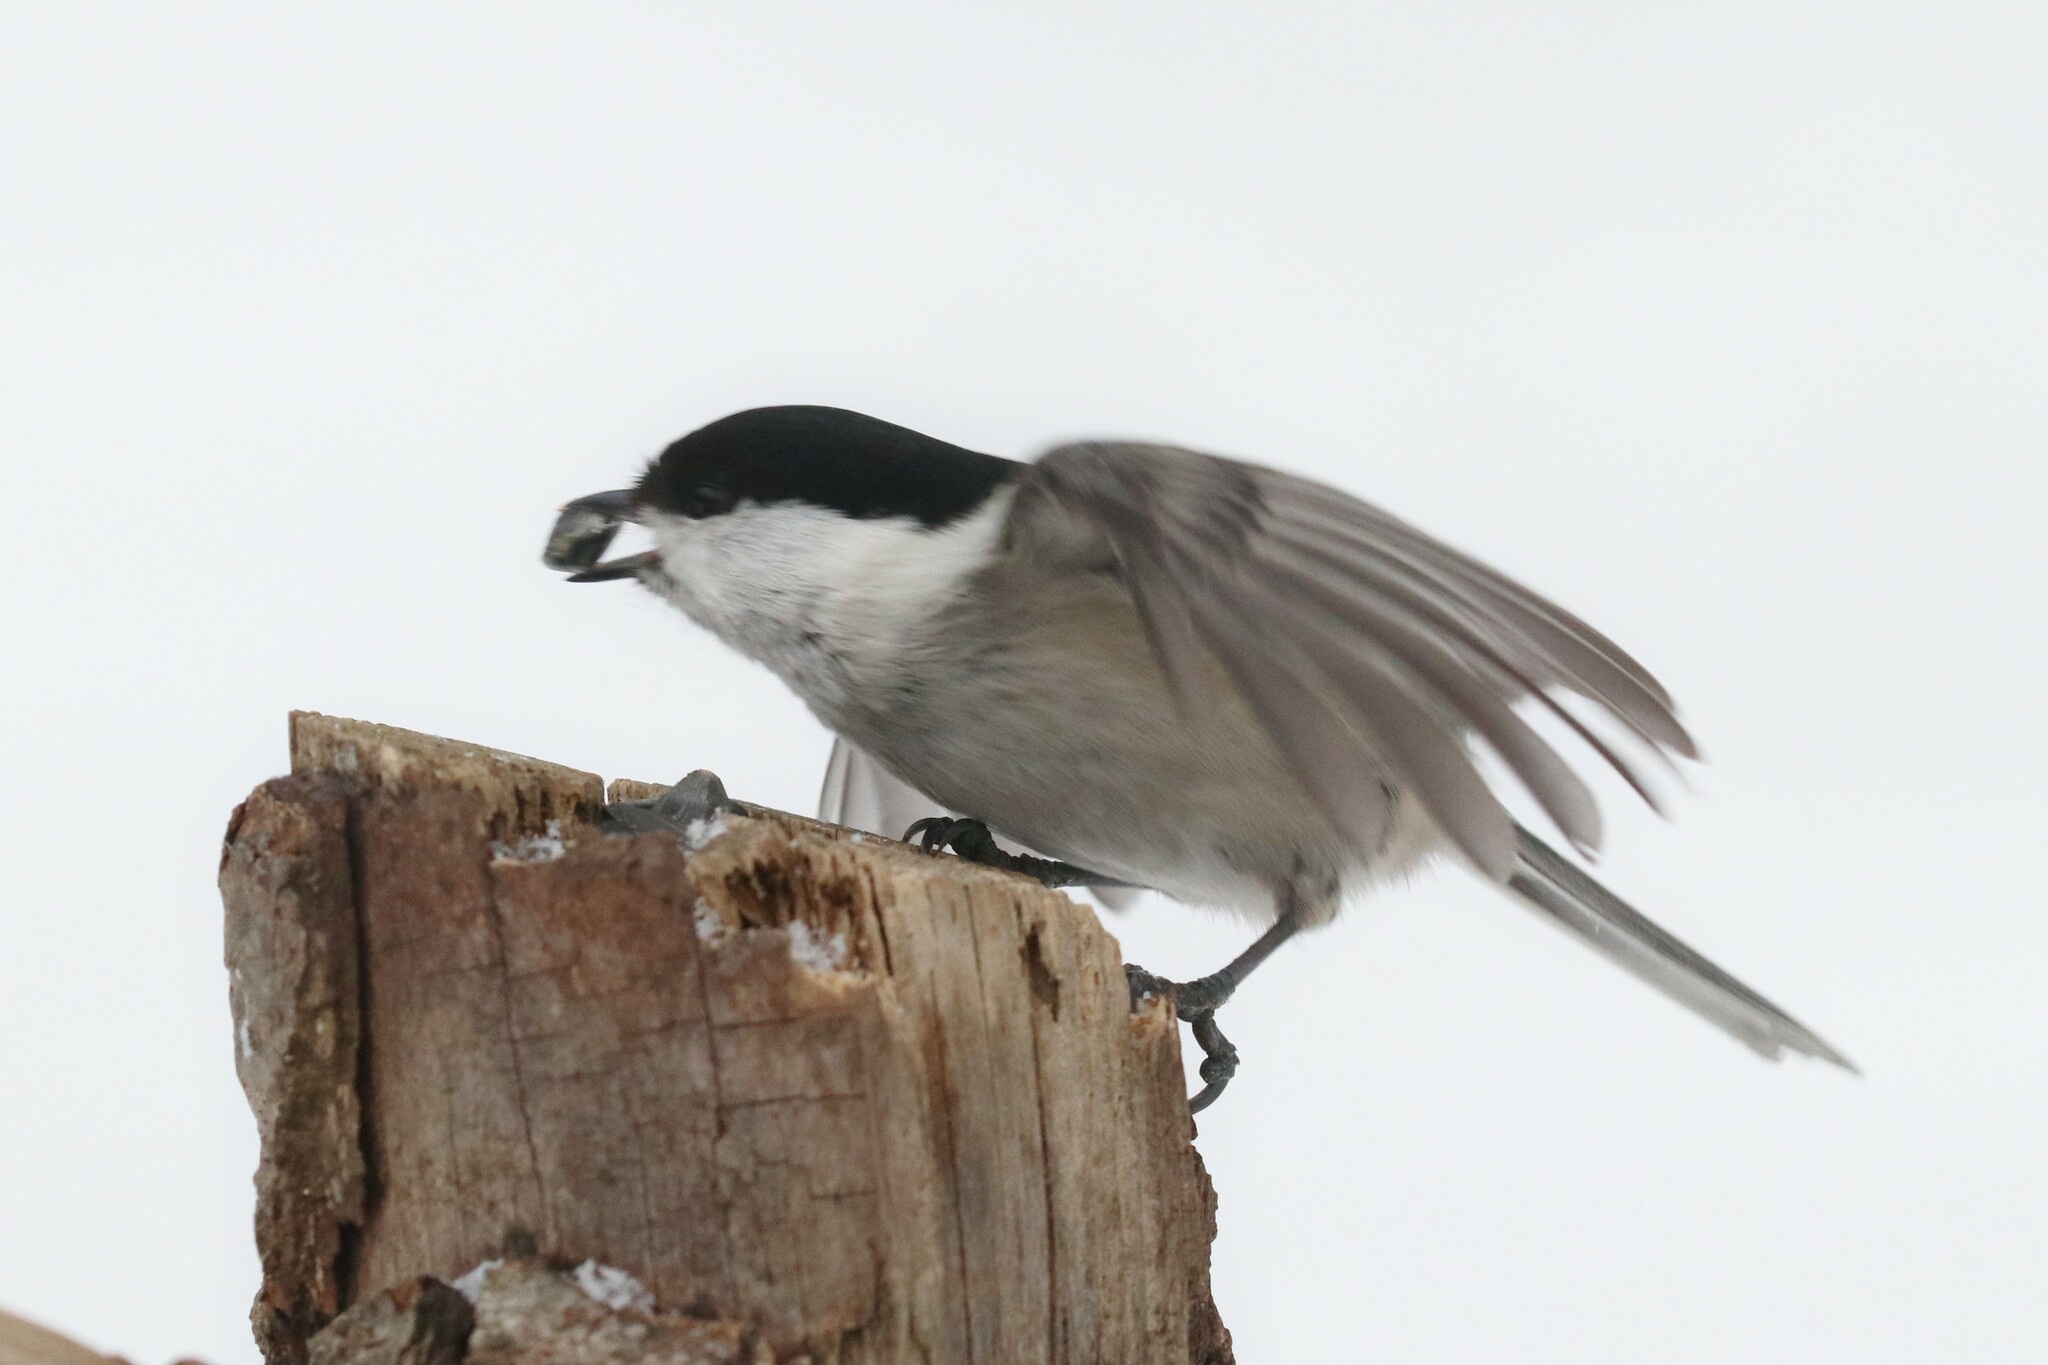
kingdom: Animalia
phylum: Chordata
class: Aves
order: Passeriformes
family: Paridae
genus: Poecile
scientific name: Poecile montanus
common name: Willow tit
